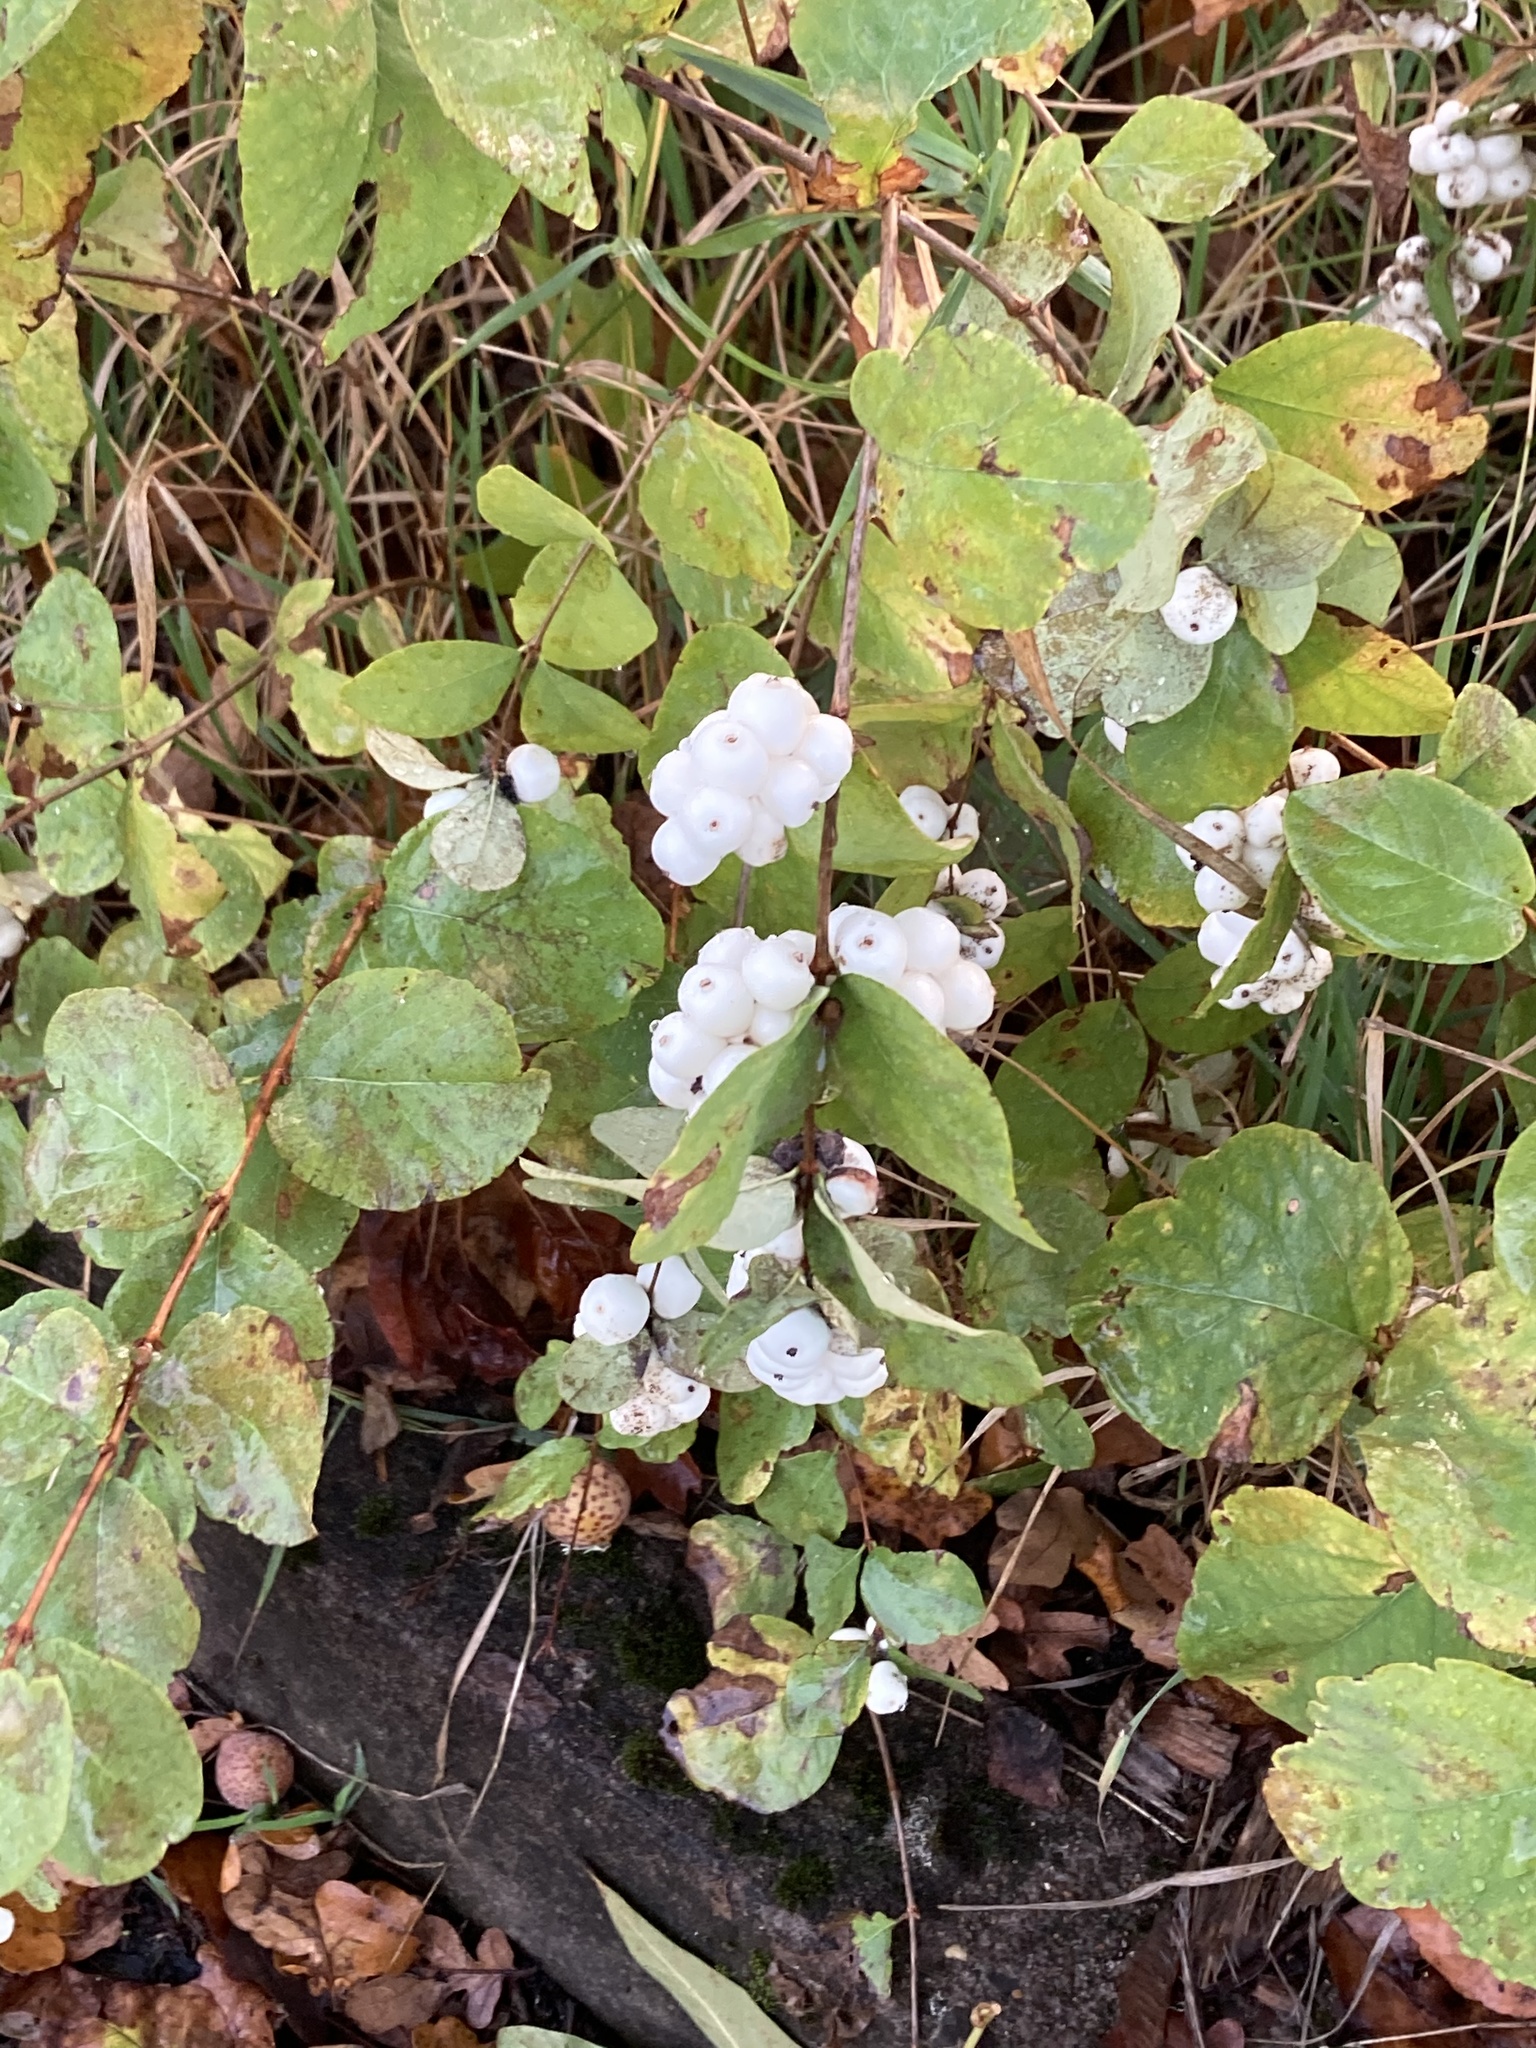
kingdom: Plantae
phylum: Tracheophyta
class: Magnoliopsida
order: Dipsacales
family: Caprifoliaceae
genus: Symphoricarpos
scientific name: Symphoricarpos albus
